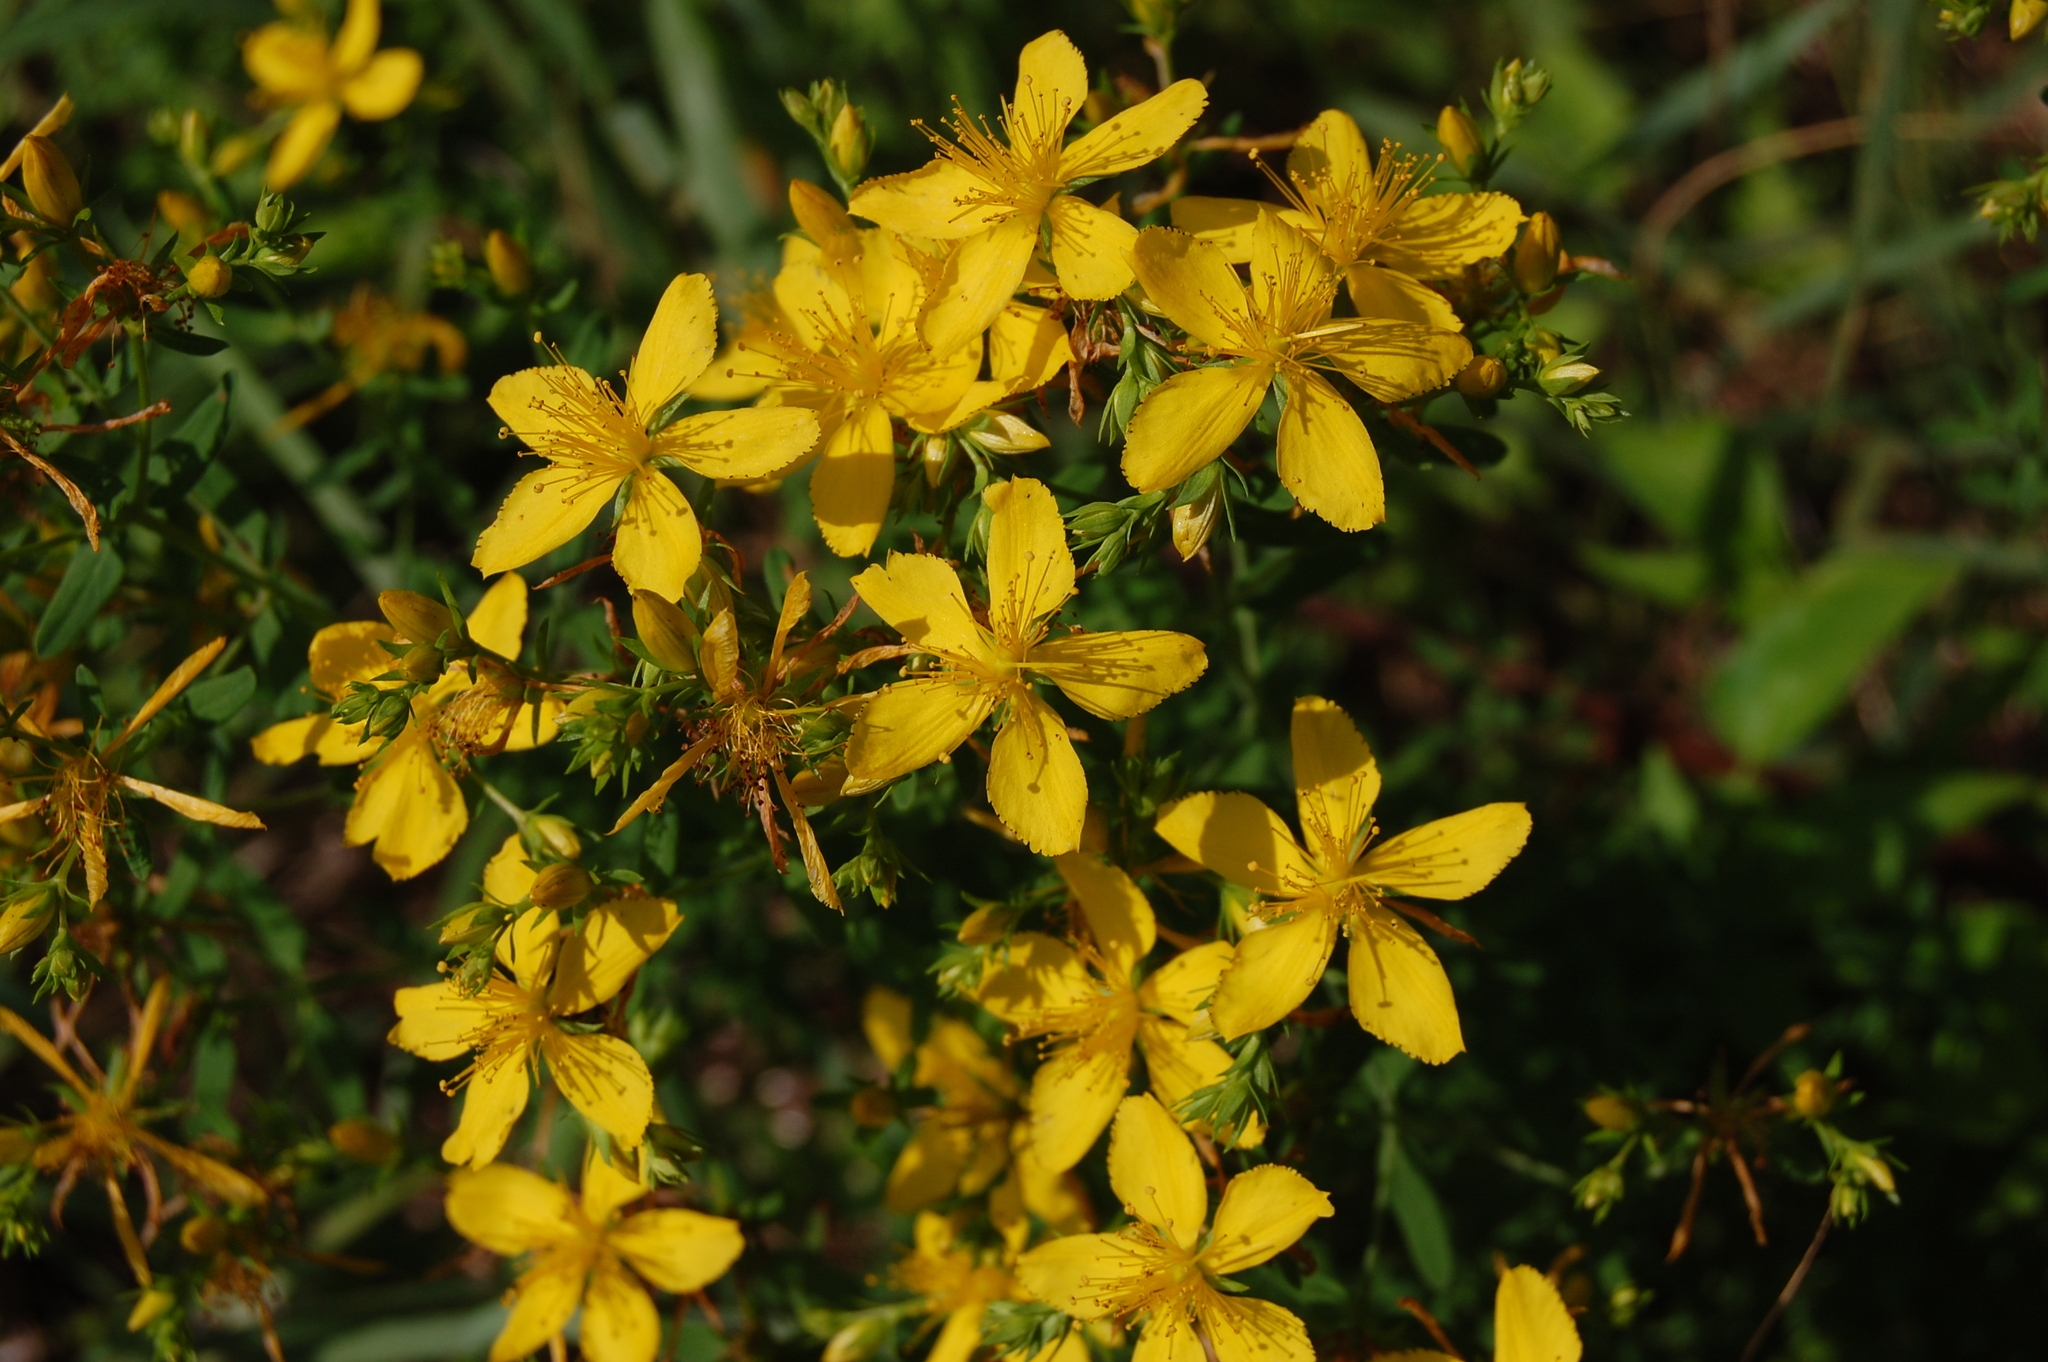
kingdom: Plantae
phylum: Tracheophyta
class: Magnoliopsida
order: Malpighiales
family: Hypericaceae
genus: Hypericum
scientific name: Hypericum perforatum
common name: Common st. johnswort
